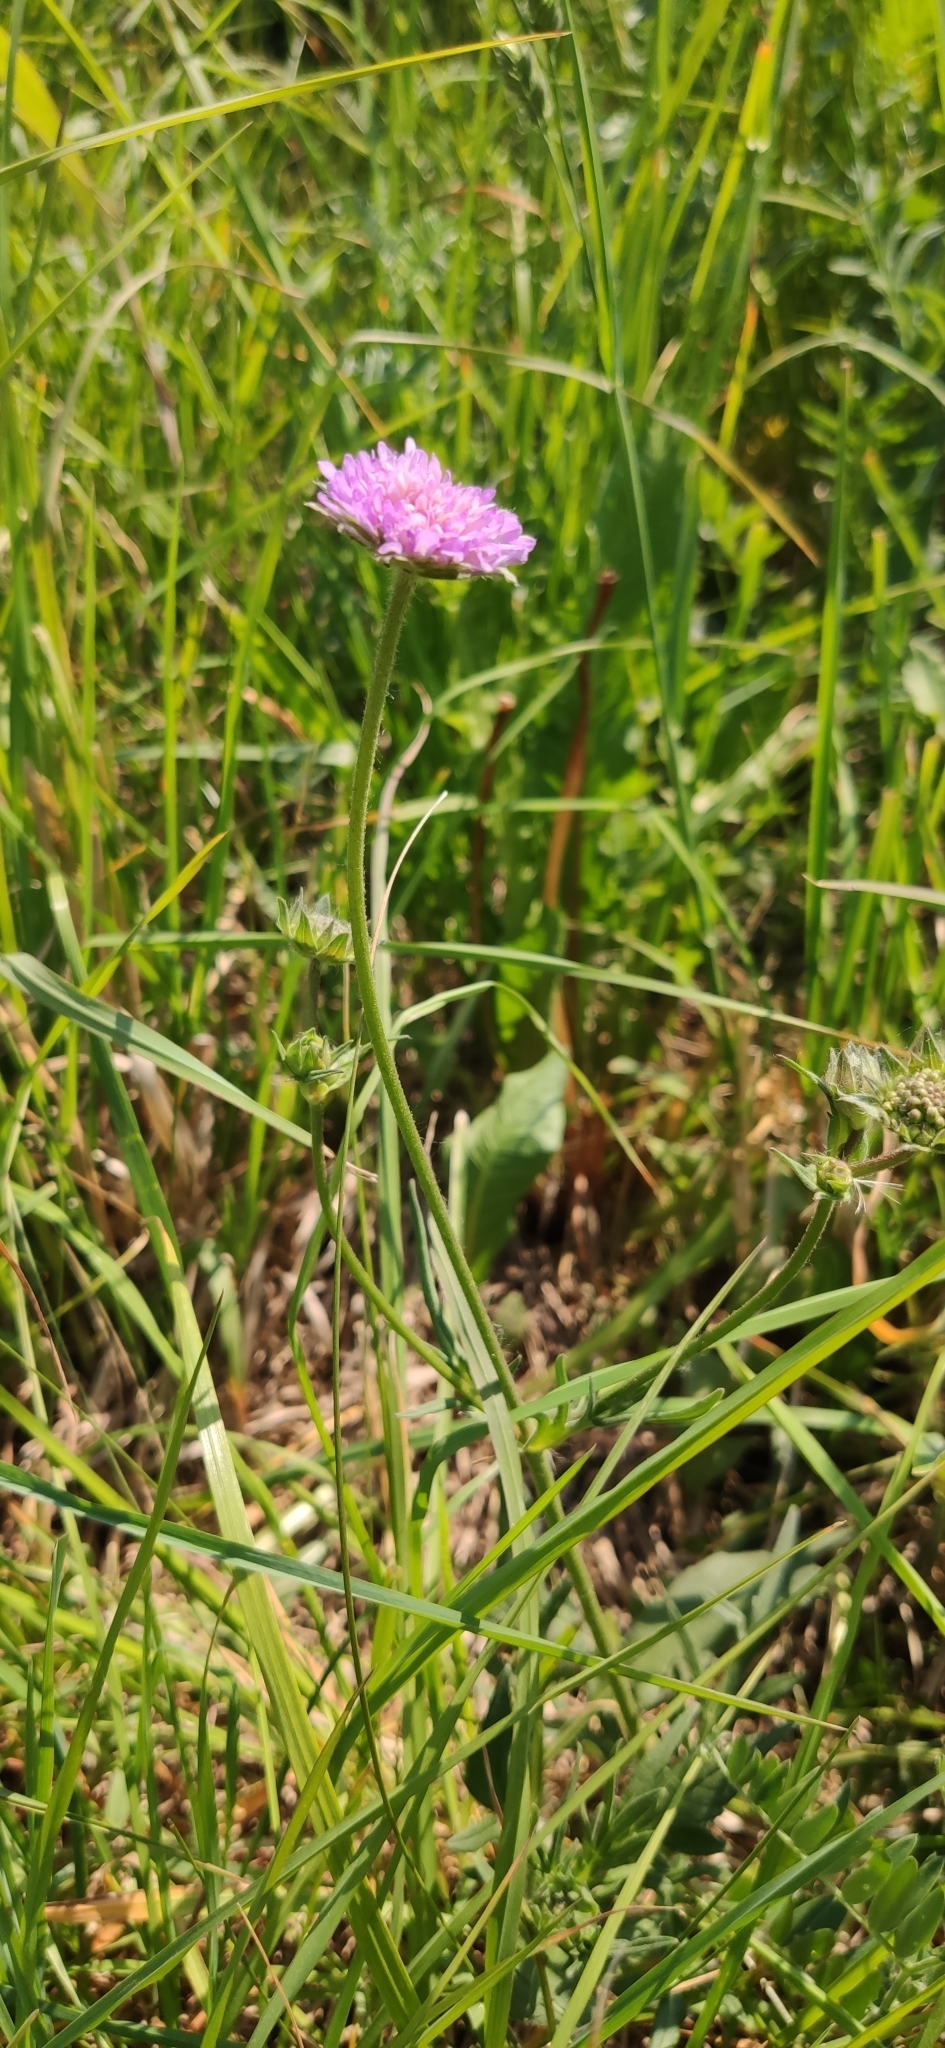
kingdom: Plantae
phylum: Tracheophyta
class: Magnoliopsida
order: Dipsacales
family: Caprifoliaceae
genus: Knautia
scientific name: Knautia arvensis
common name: Field scabiosa
